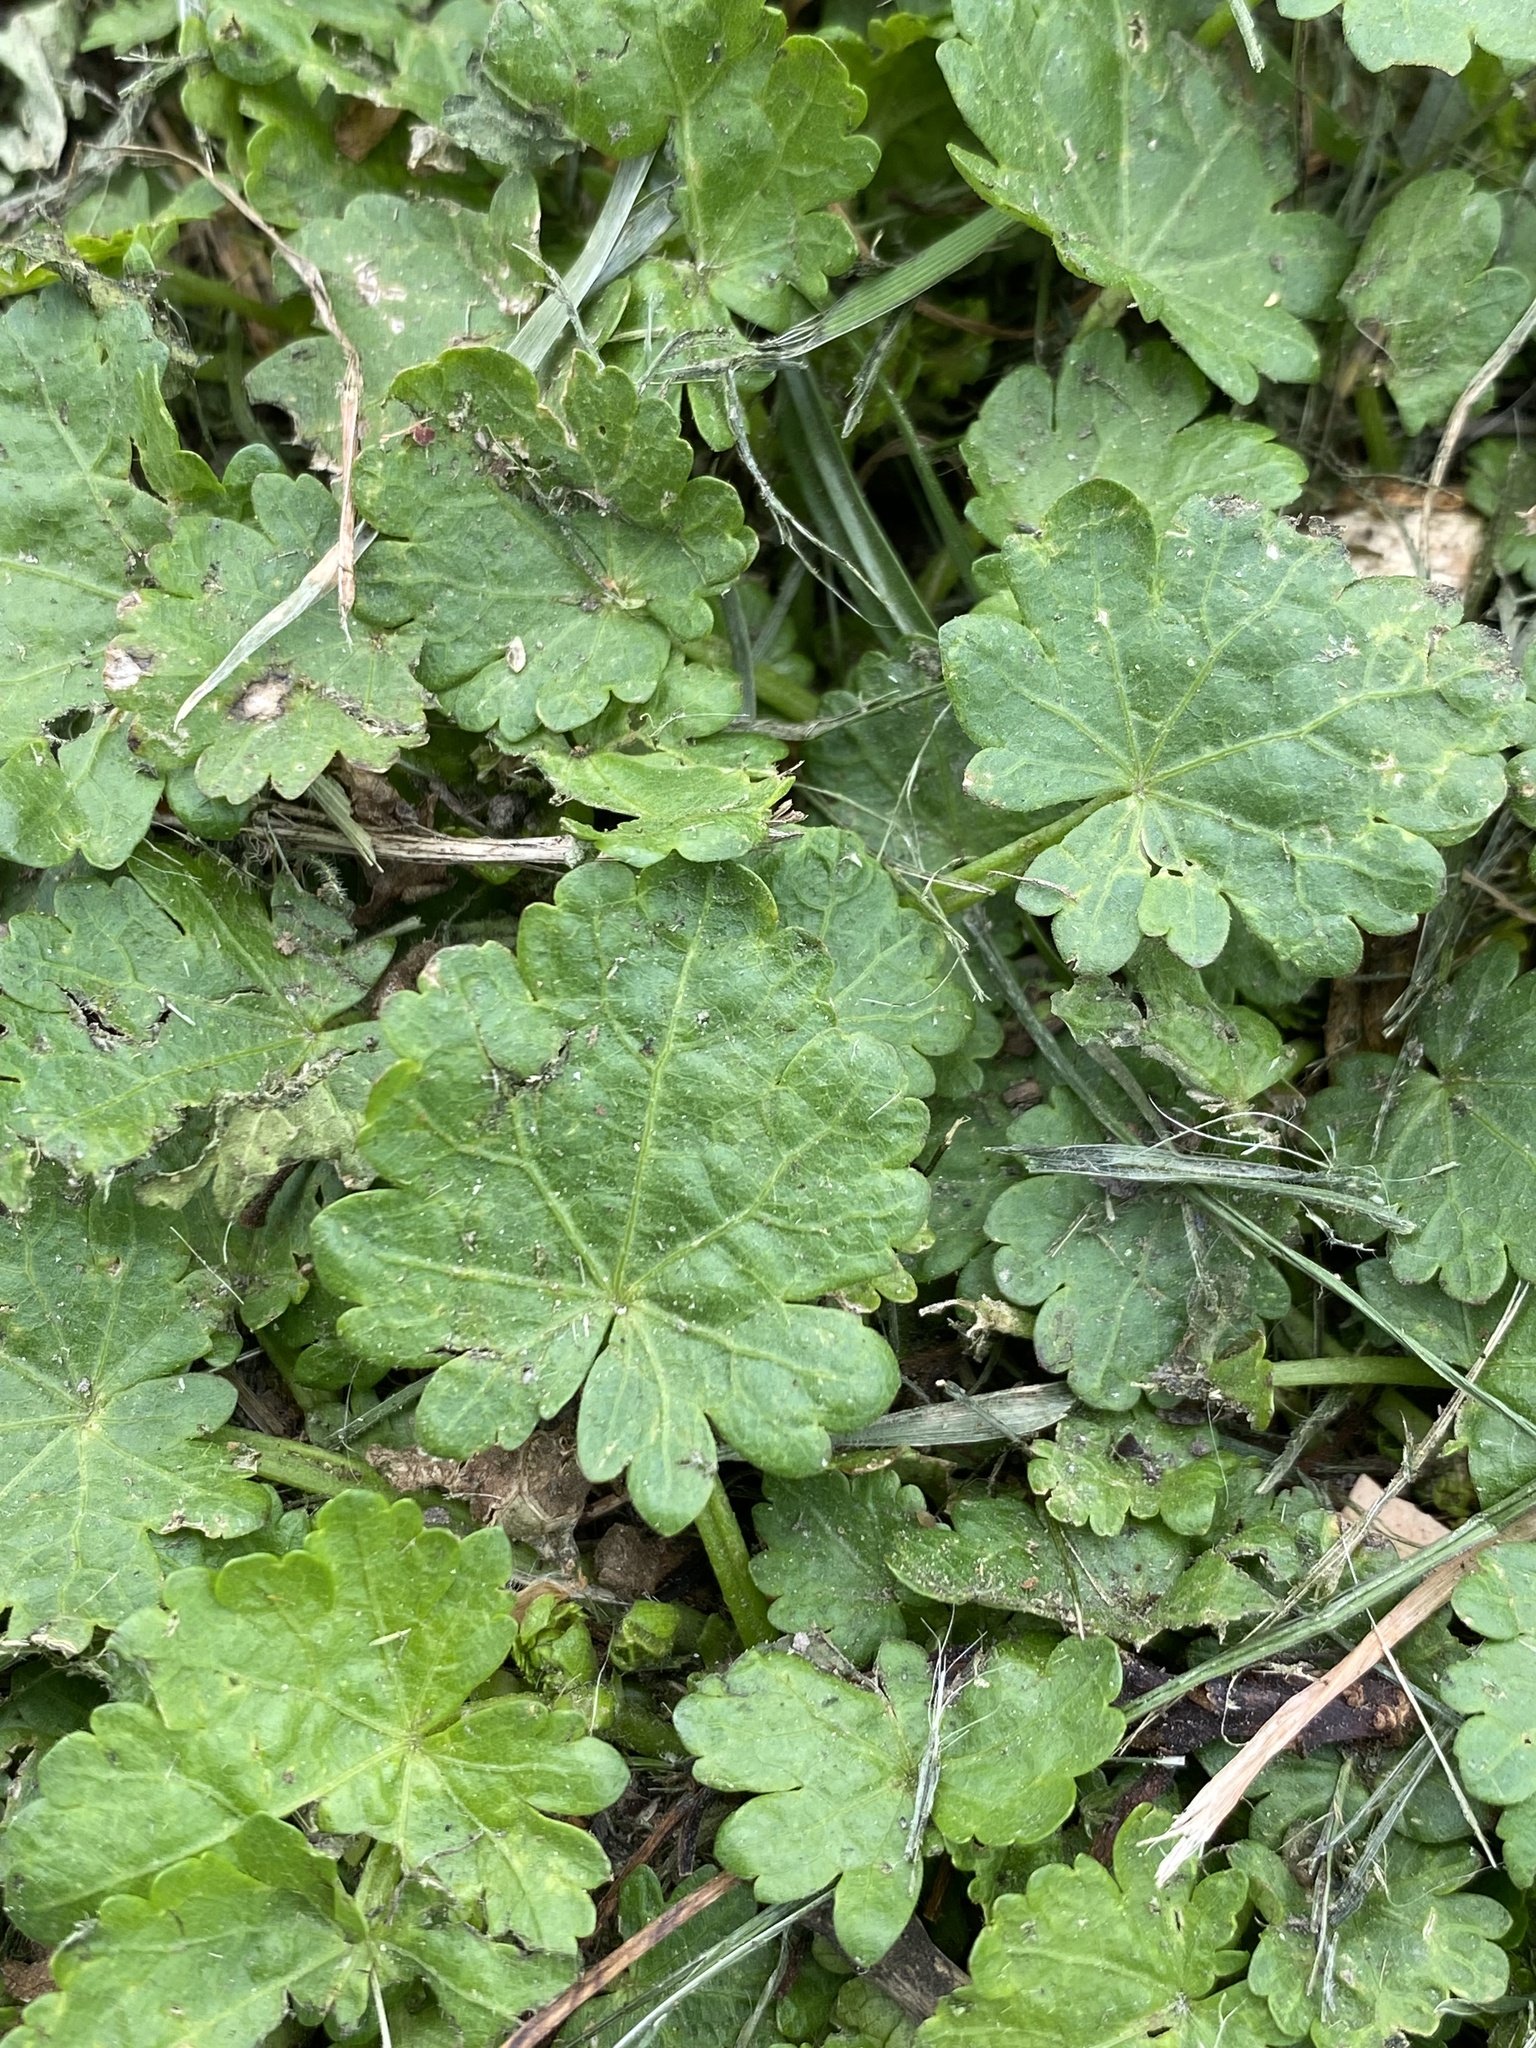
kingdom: Plantae
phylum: Tracheophyta
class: Magnoliopsida
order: Malvales
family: Malvaceae
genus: Modiola
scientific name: Modiola caroliniana
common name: Carolina bristlemallow
